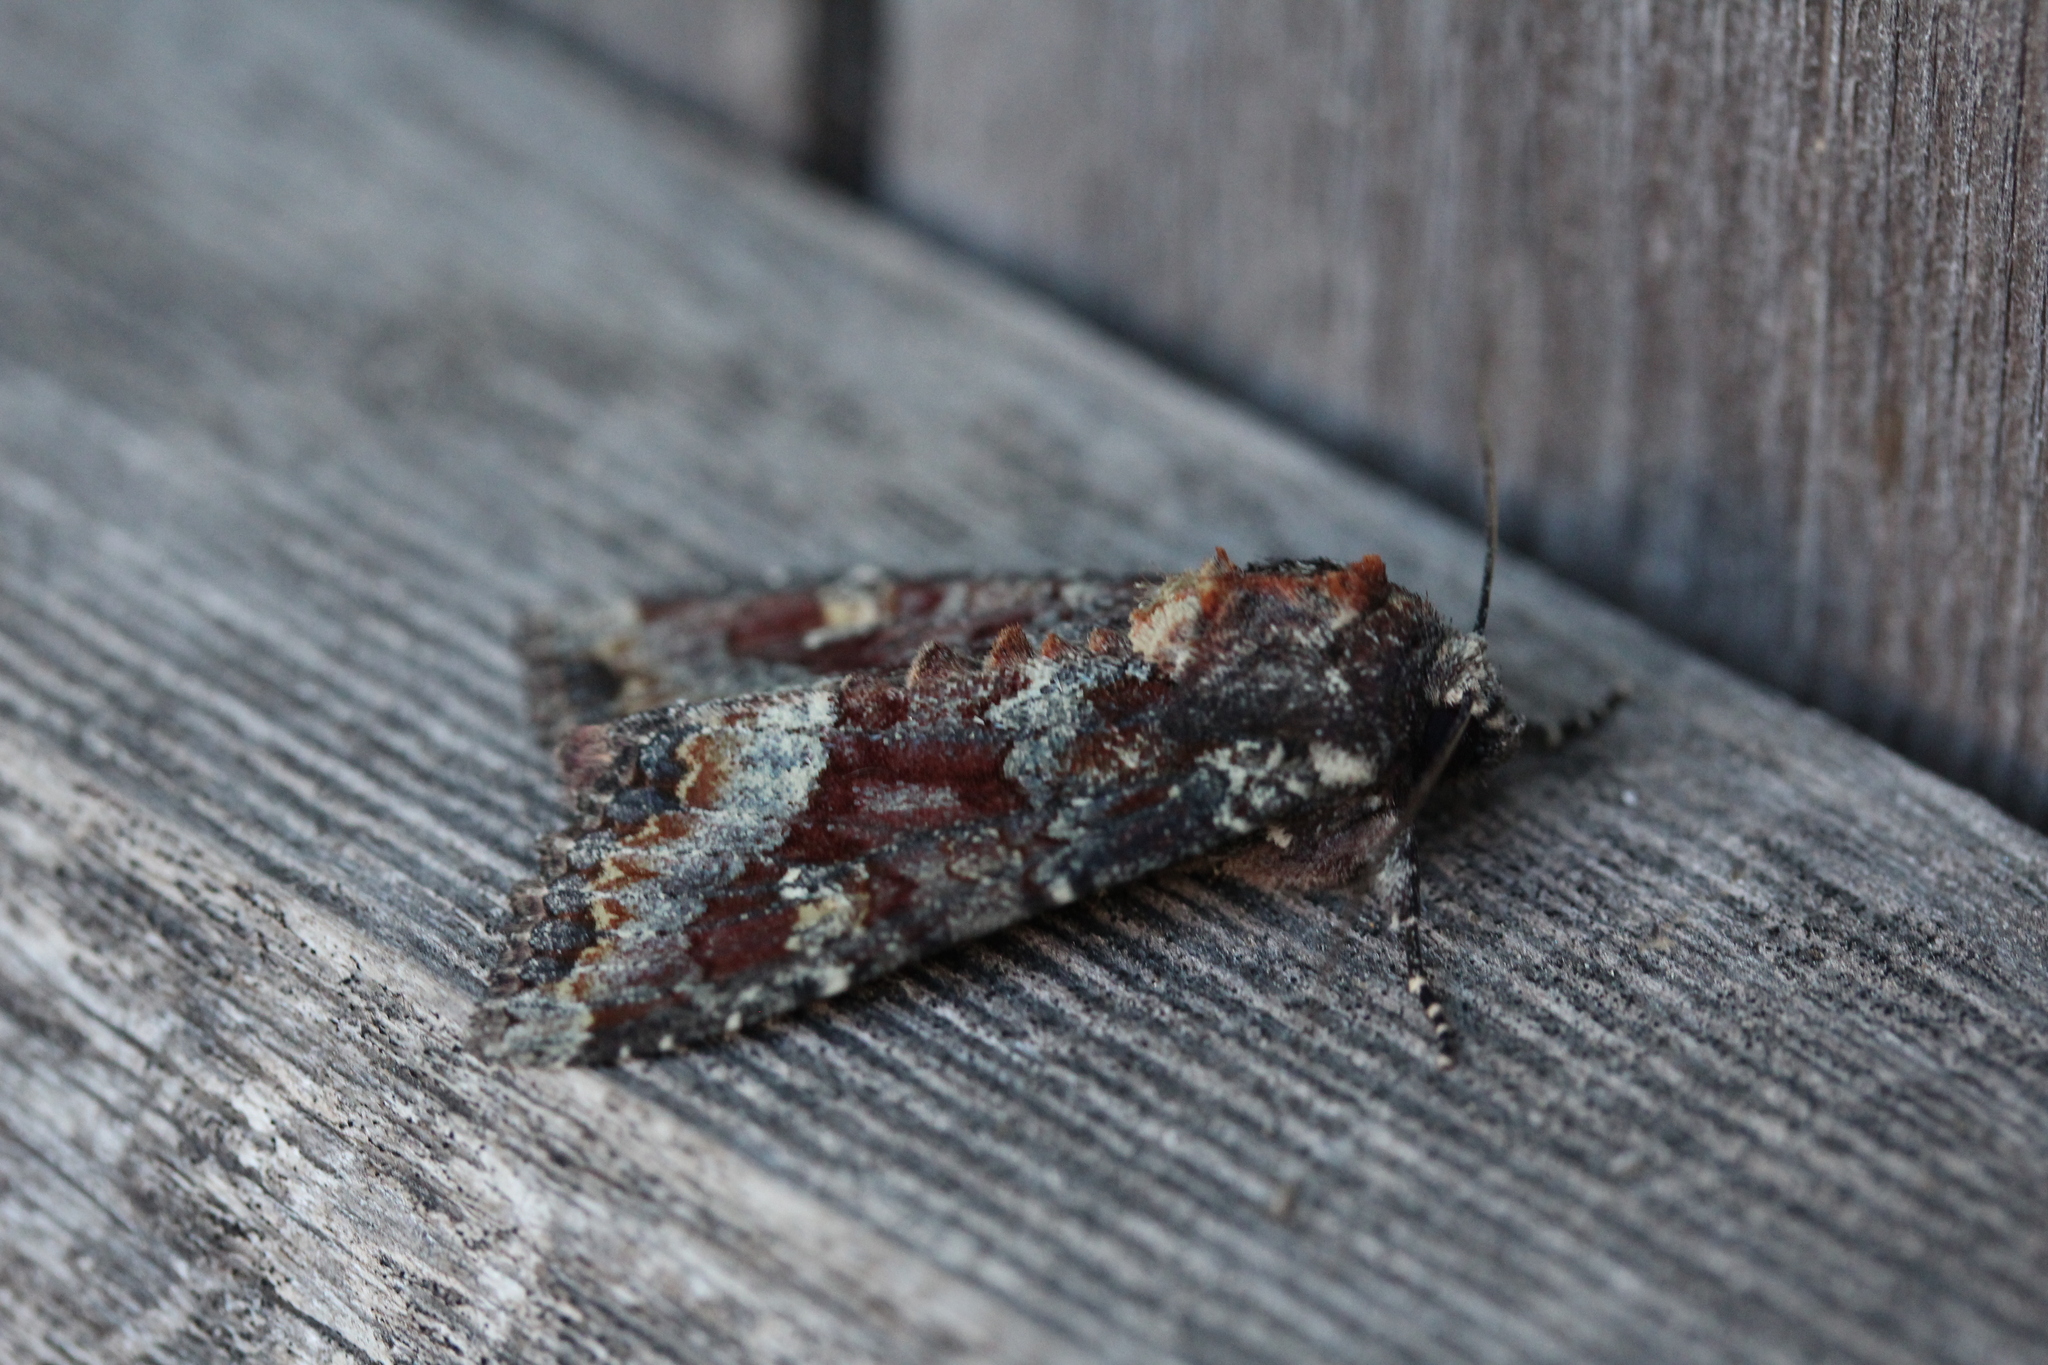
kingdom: Animalia
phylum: Arthropoda
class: Insecta
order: Lepidoptera
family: Noctuidae
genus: Apamea
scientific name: Apamea amputatrix
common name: Yellow-headed cutworm moth
